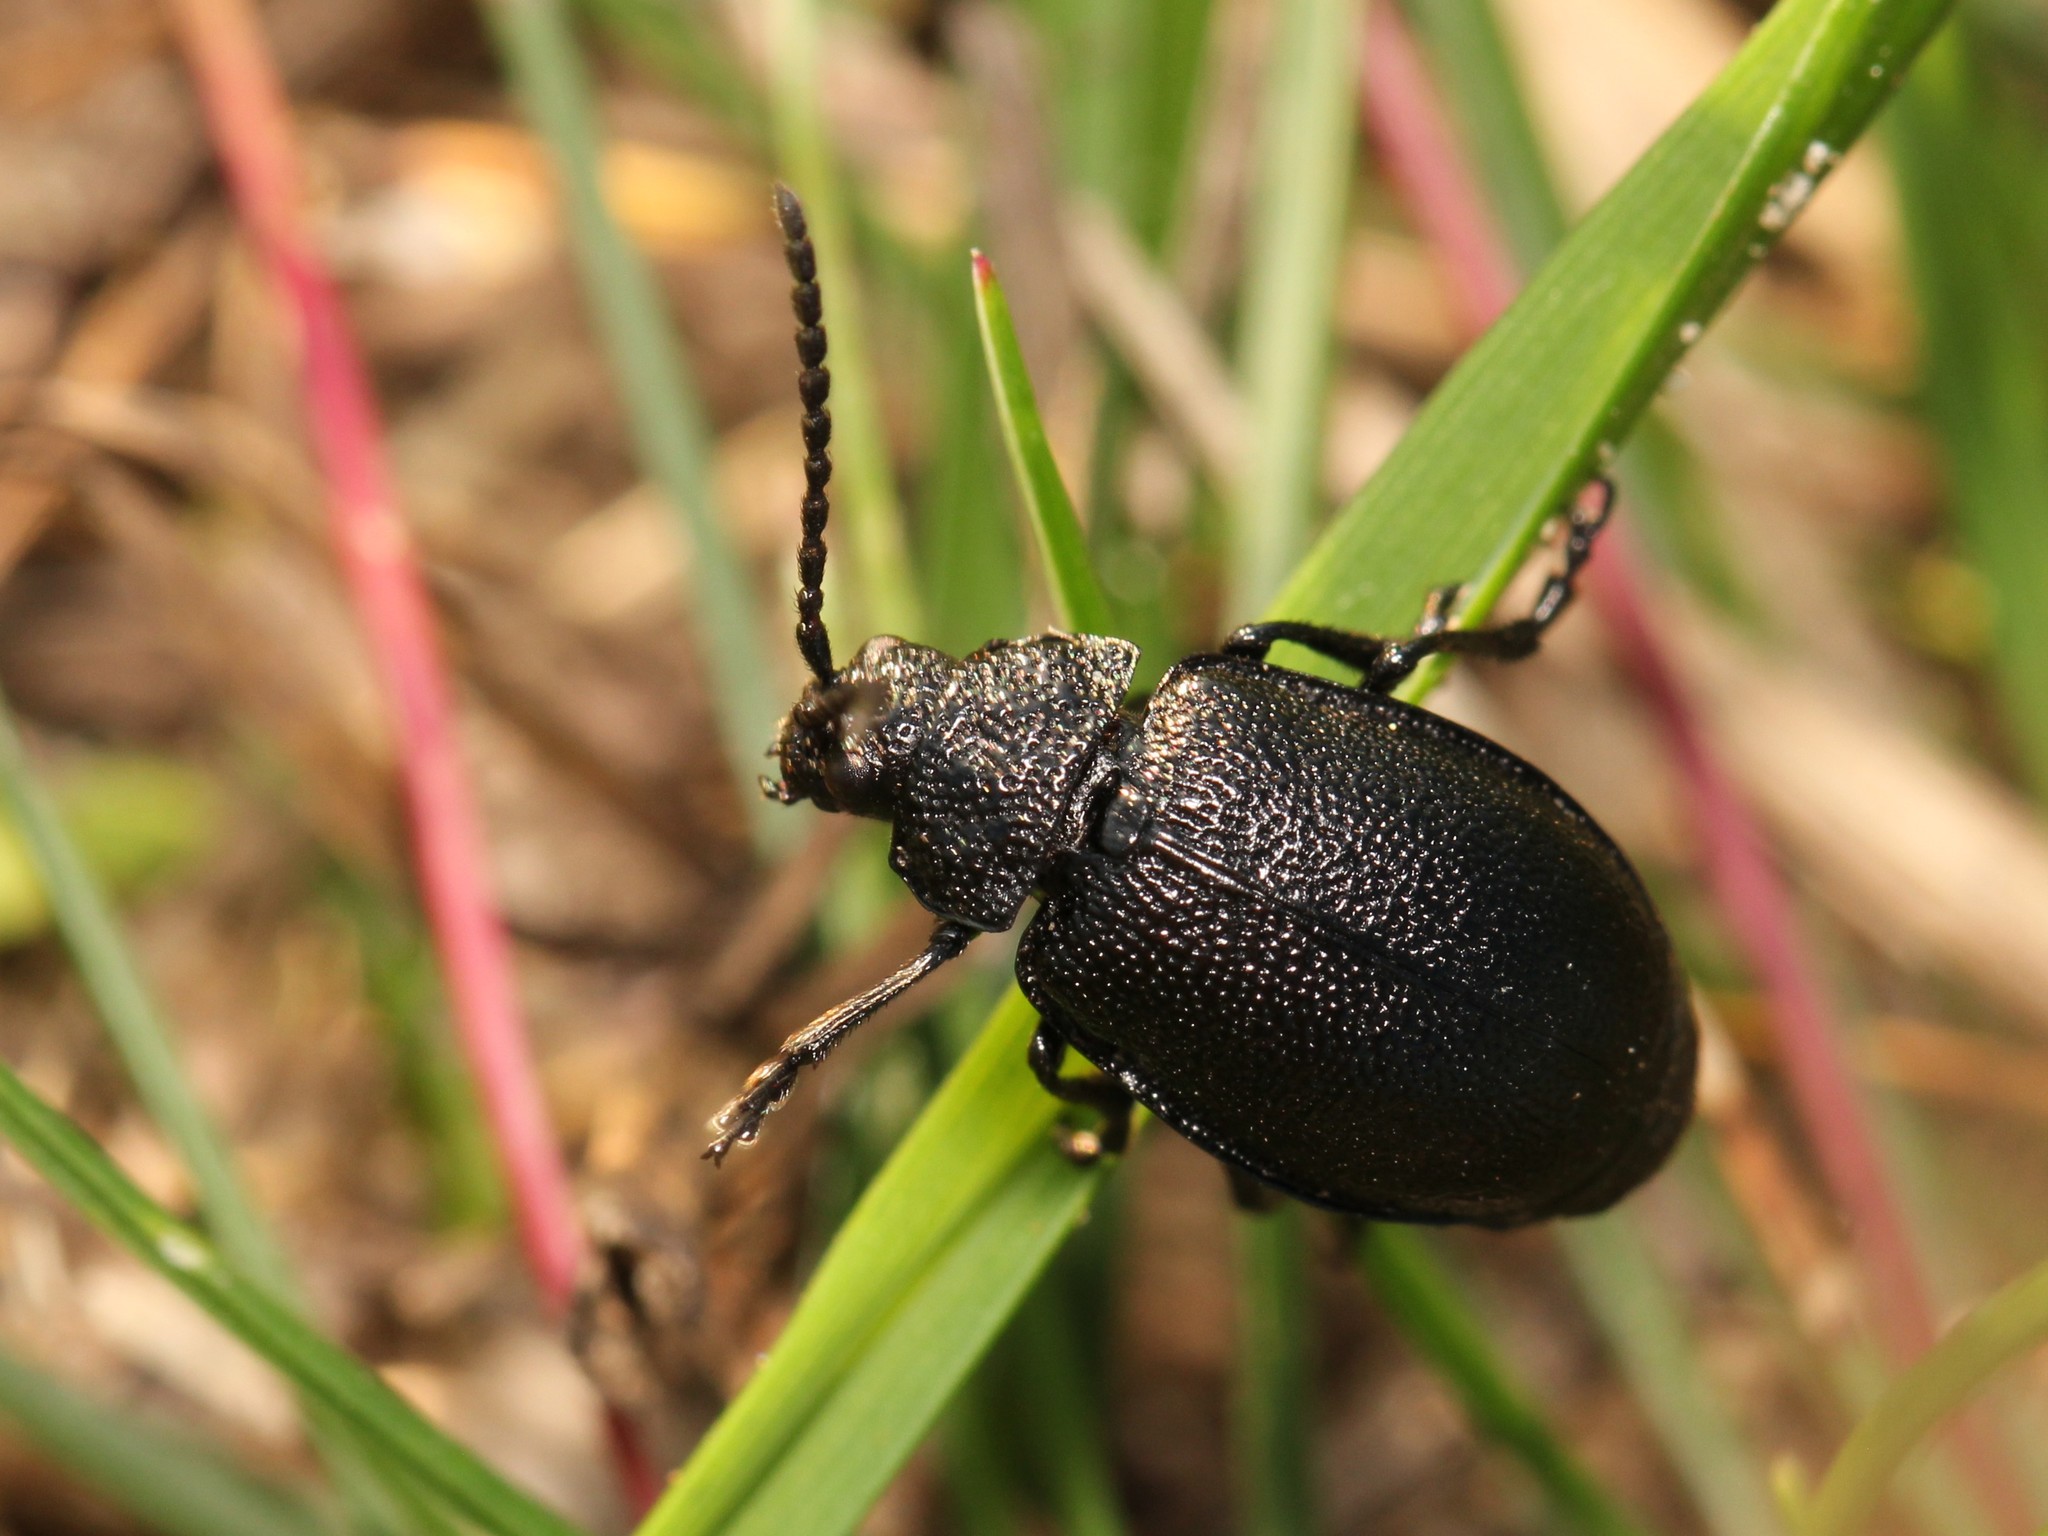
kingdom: Animalia
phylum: Arthropoda
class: Insecta
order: Coleoptera
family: Chrysomelidae
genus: Galeruca
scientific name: Galeruca tanaceti
